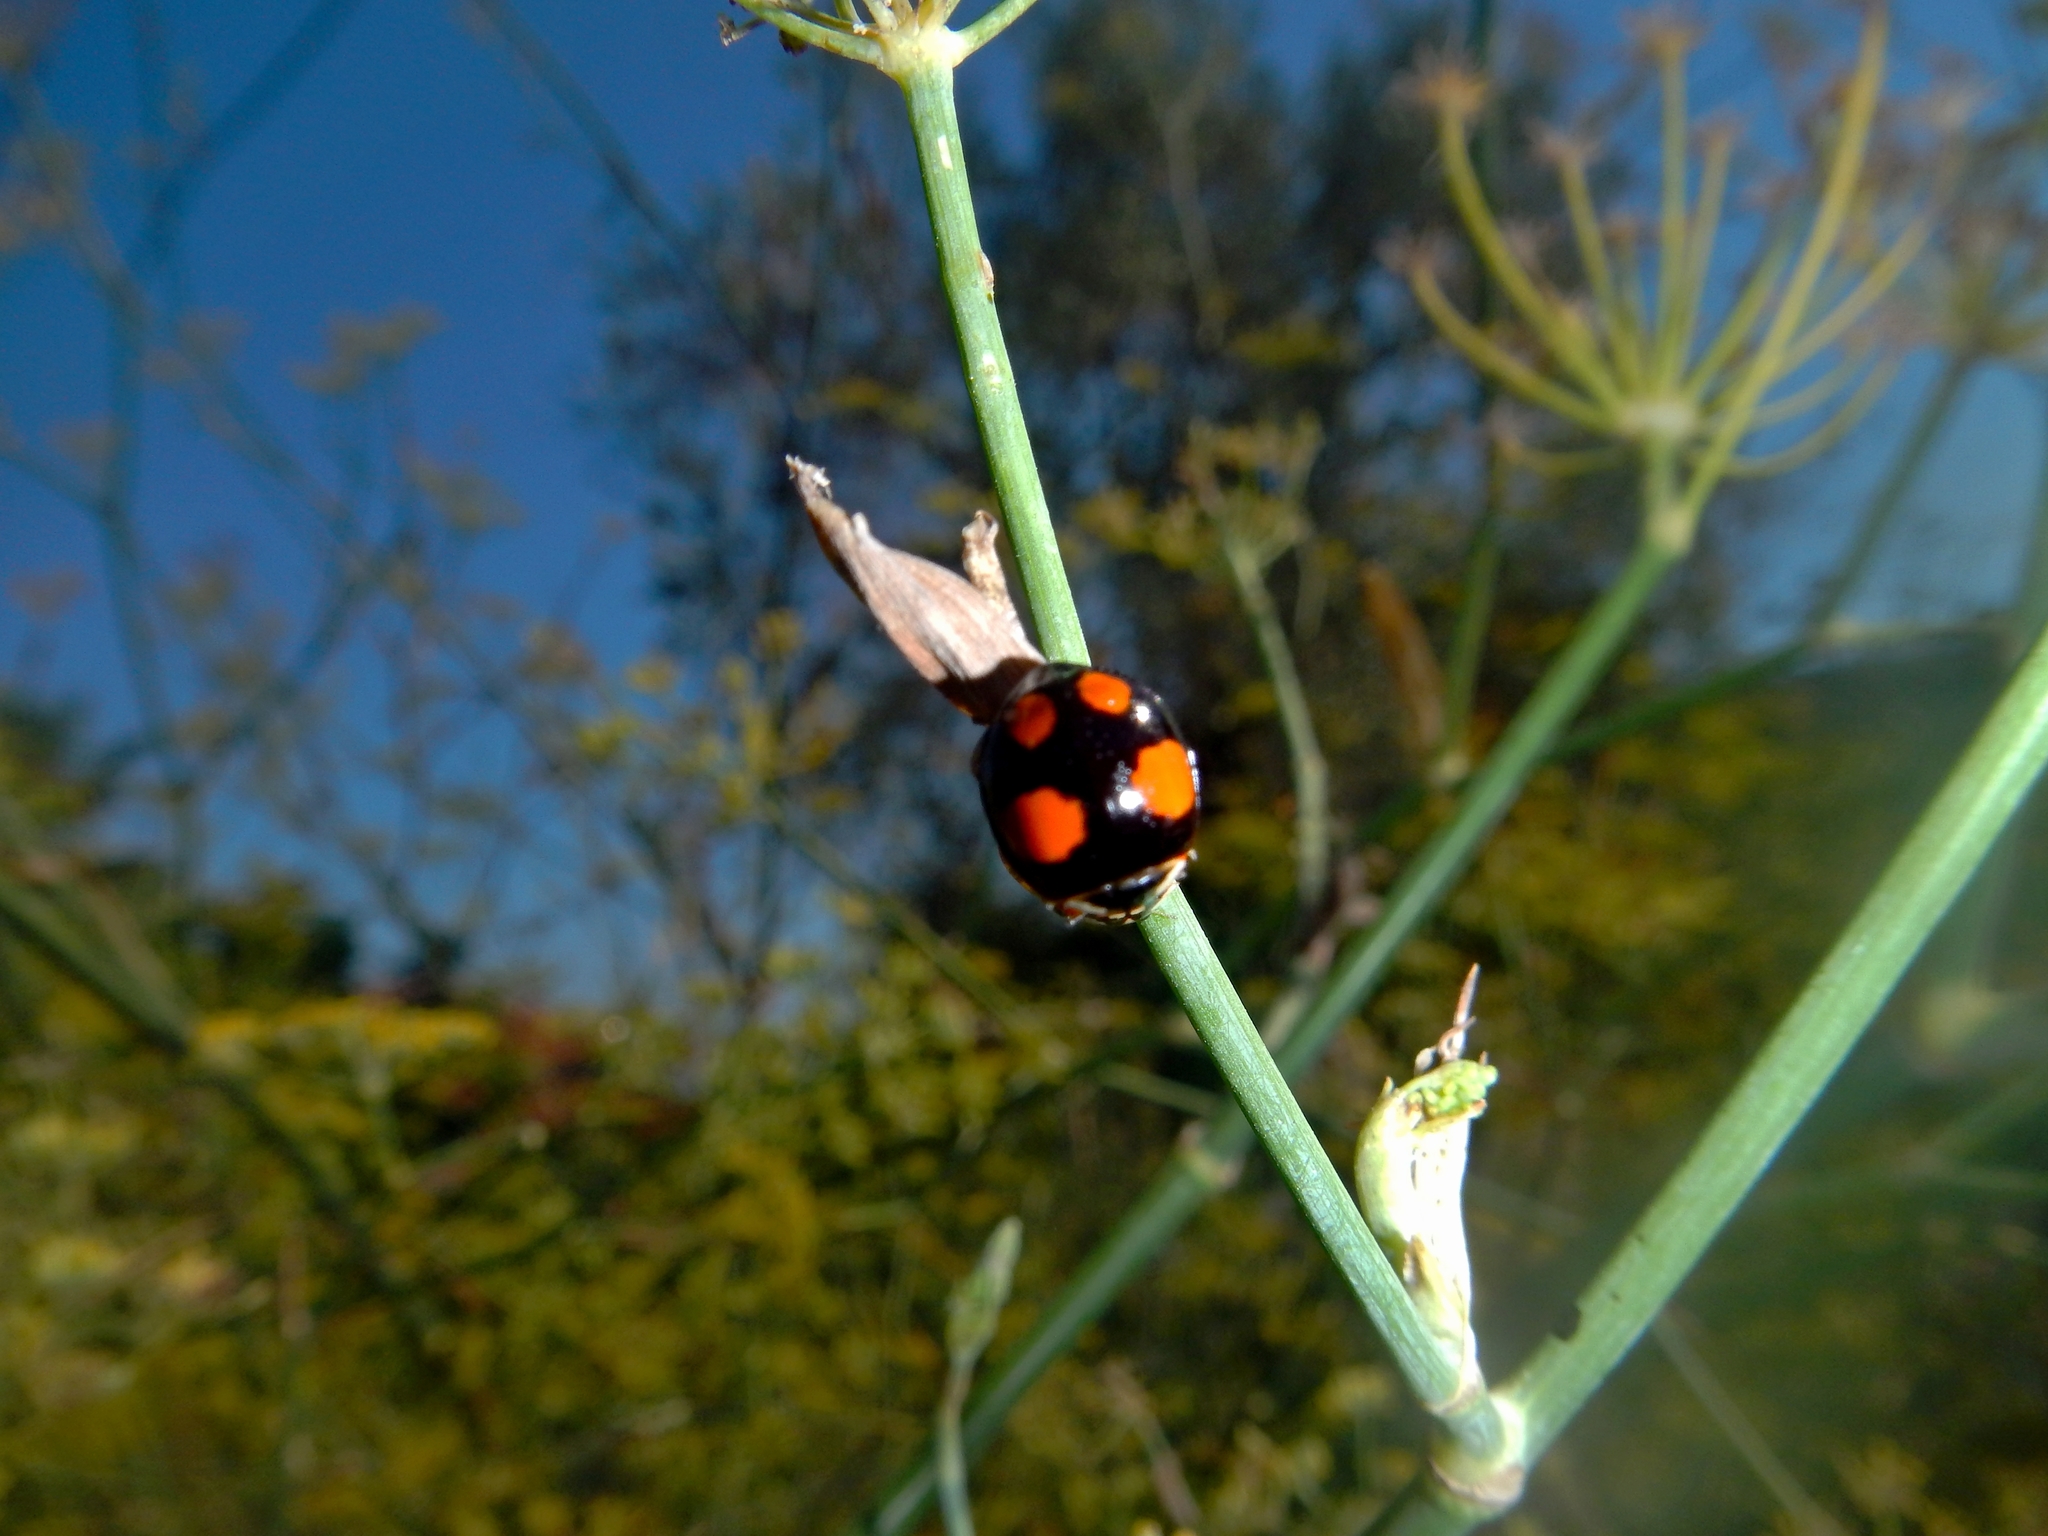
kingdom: Animalia
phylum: Arthropoda
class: Insecta
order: Coleoptera
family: Coccinellidae
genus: Harmonia
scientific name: Harmonia axyridis
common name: Harlequin ladybird
